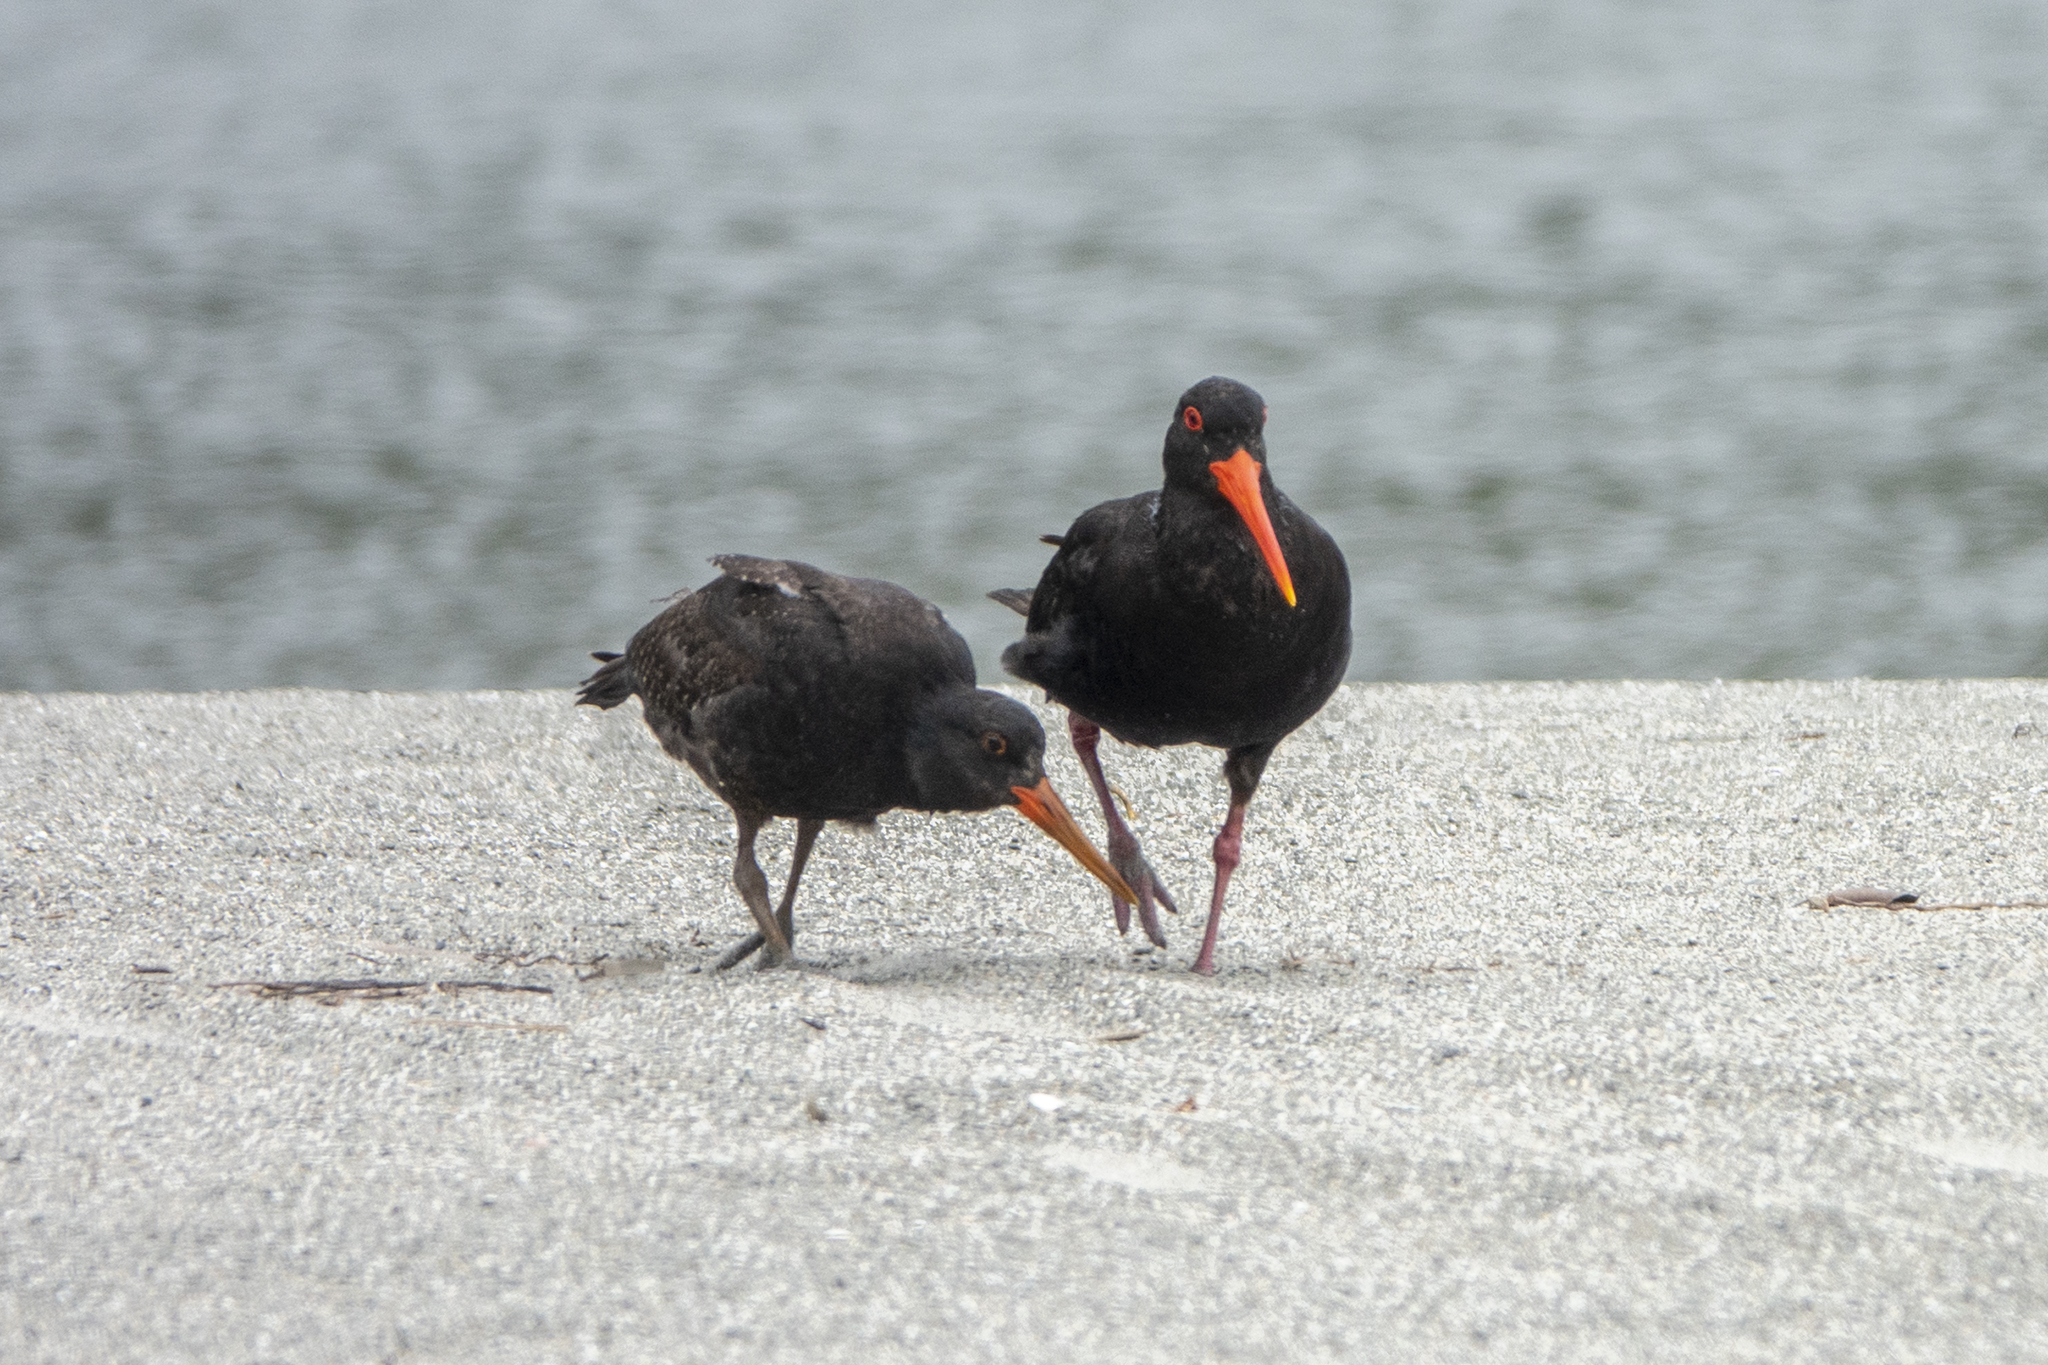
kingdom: Animalia
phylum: Chordata
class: Aves
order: Charadriiformes
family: Haematopodidae
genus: Haematopus
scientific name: Haematopus unicolor
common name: Variable oystercatcher
